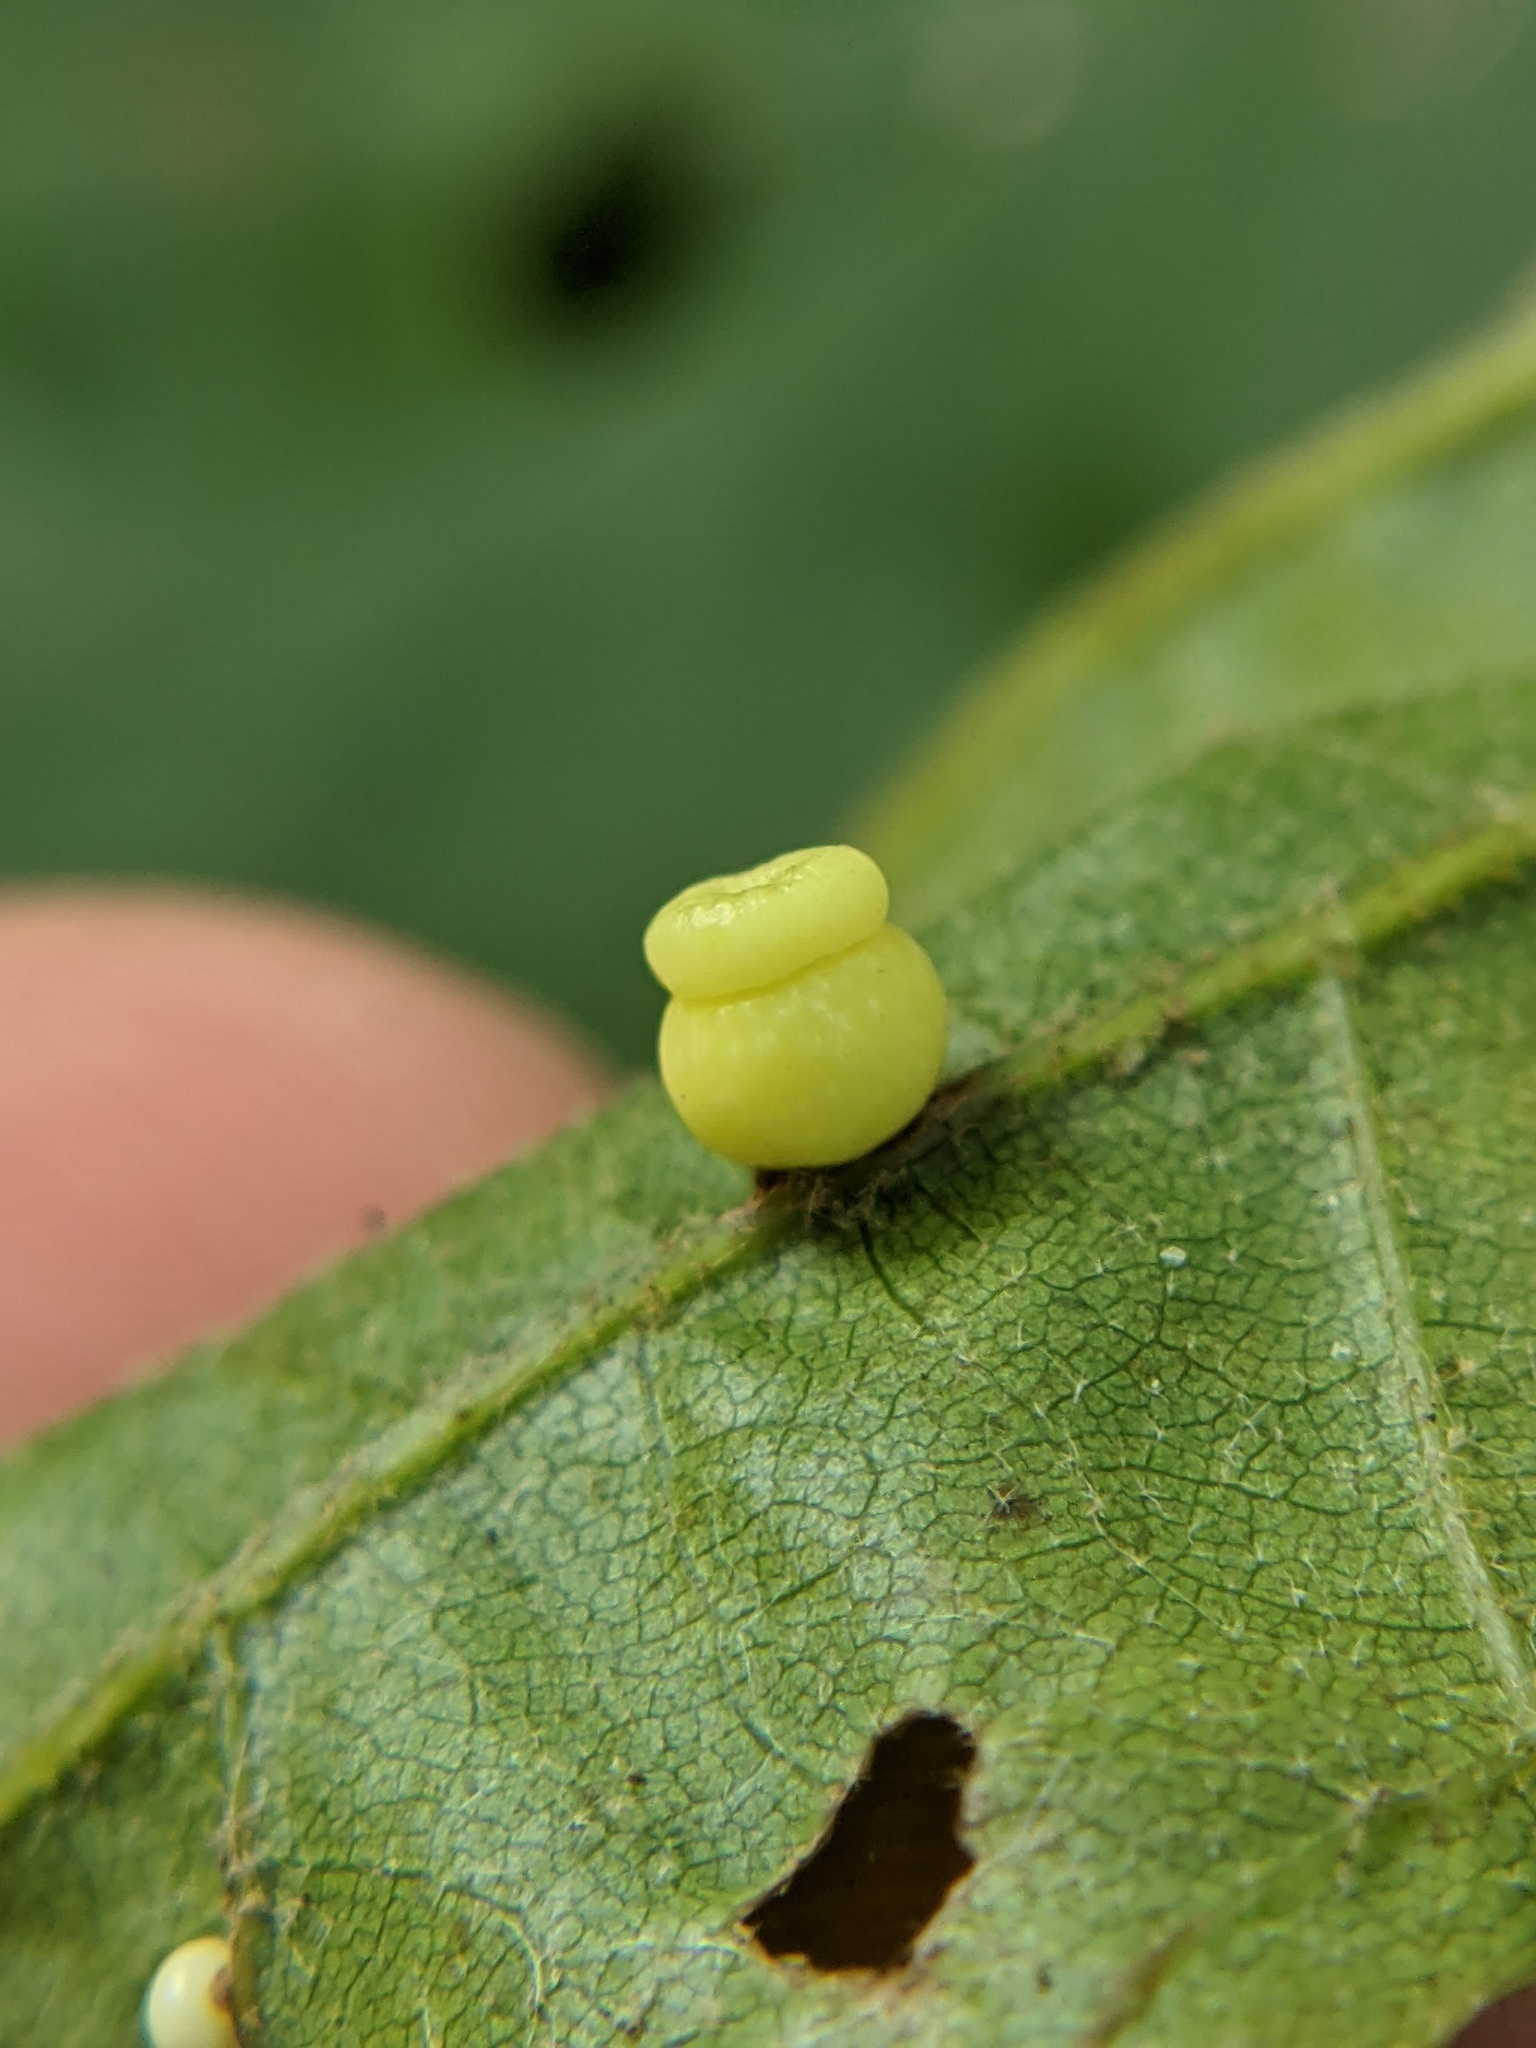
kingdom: Animalia
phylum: Arthropoda
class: Insecta
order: Hymenoptera
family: Cynipidae
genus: Kokkocynips
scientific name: Kokkocynips rileyi
